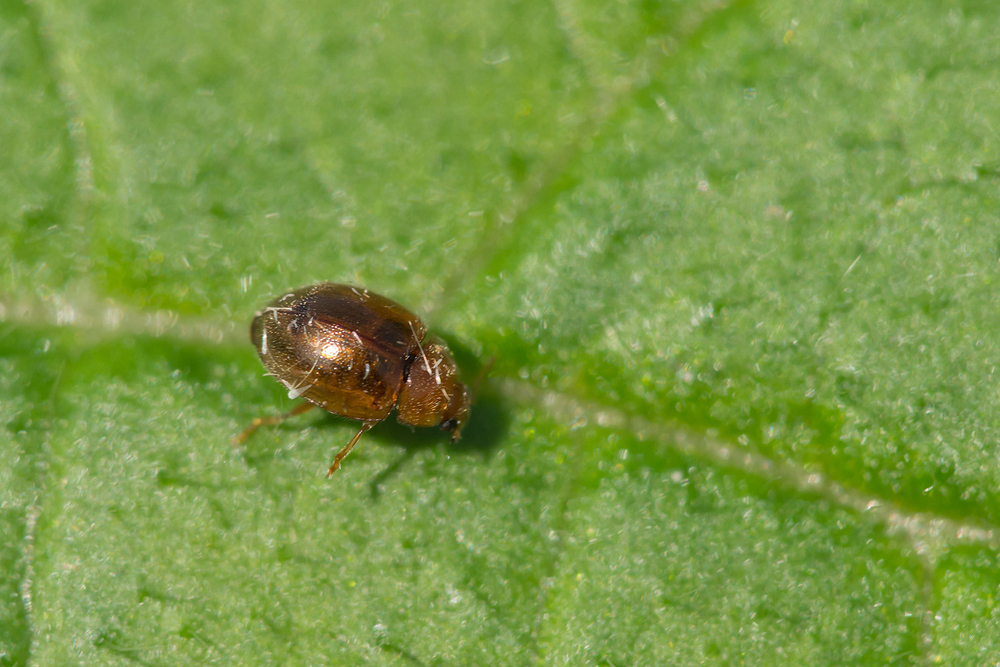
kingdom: Animalia
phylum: Arthropoda
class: Insecta
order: Coleoptera
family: Coccinellidae
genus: Rhyzobius
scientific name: Rhyzobius litura
